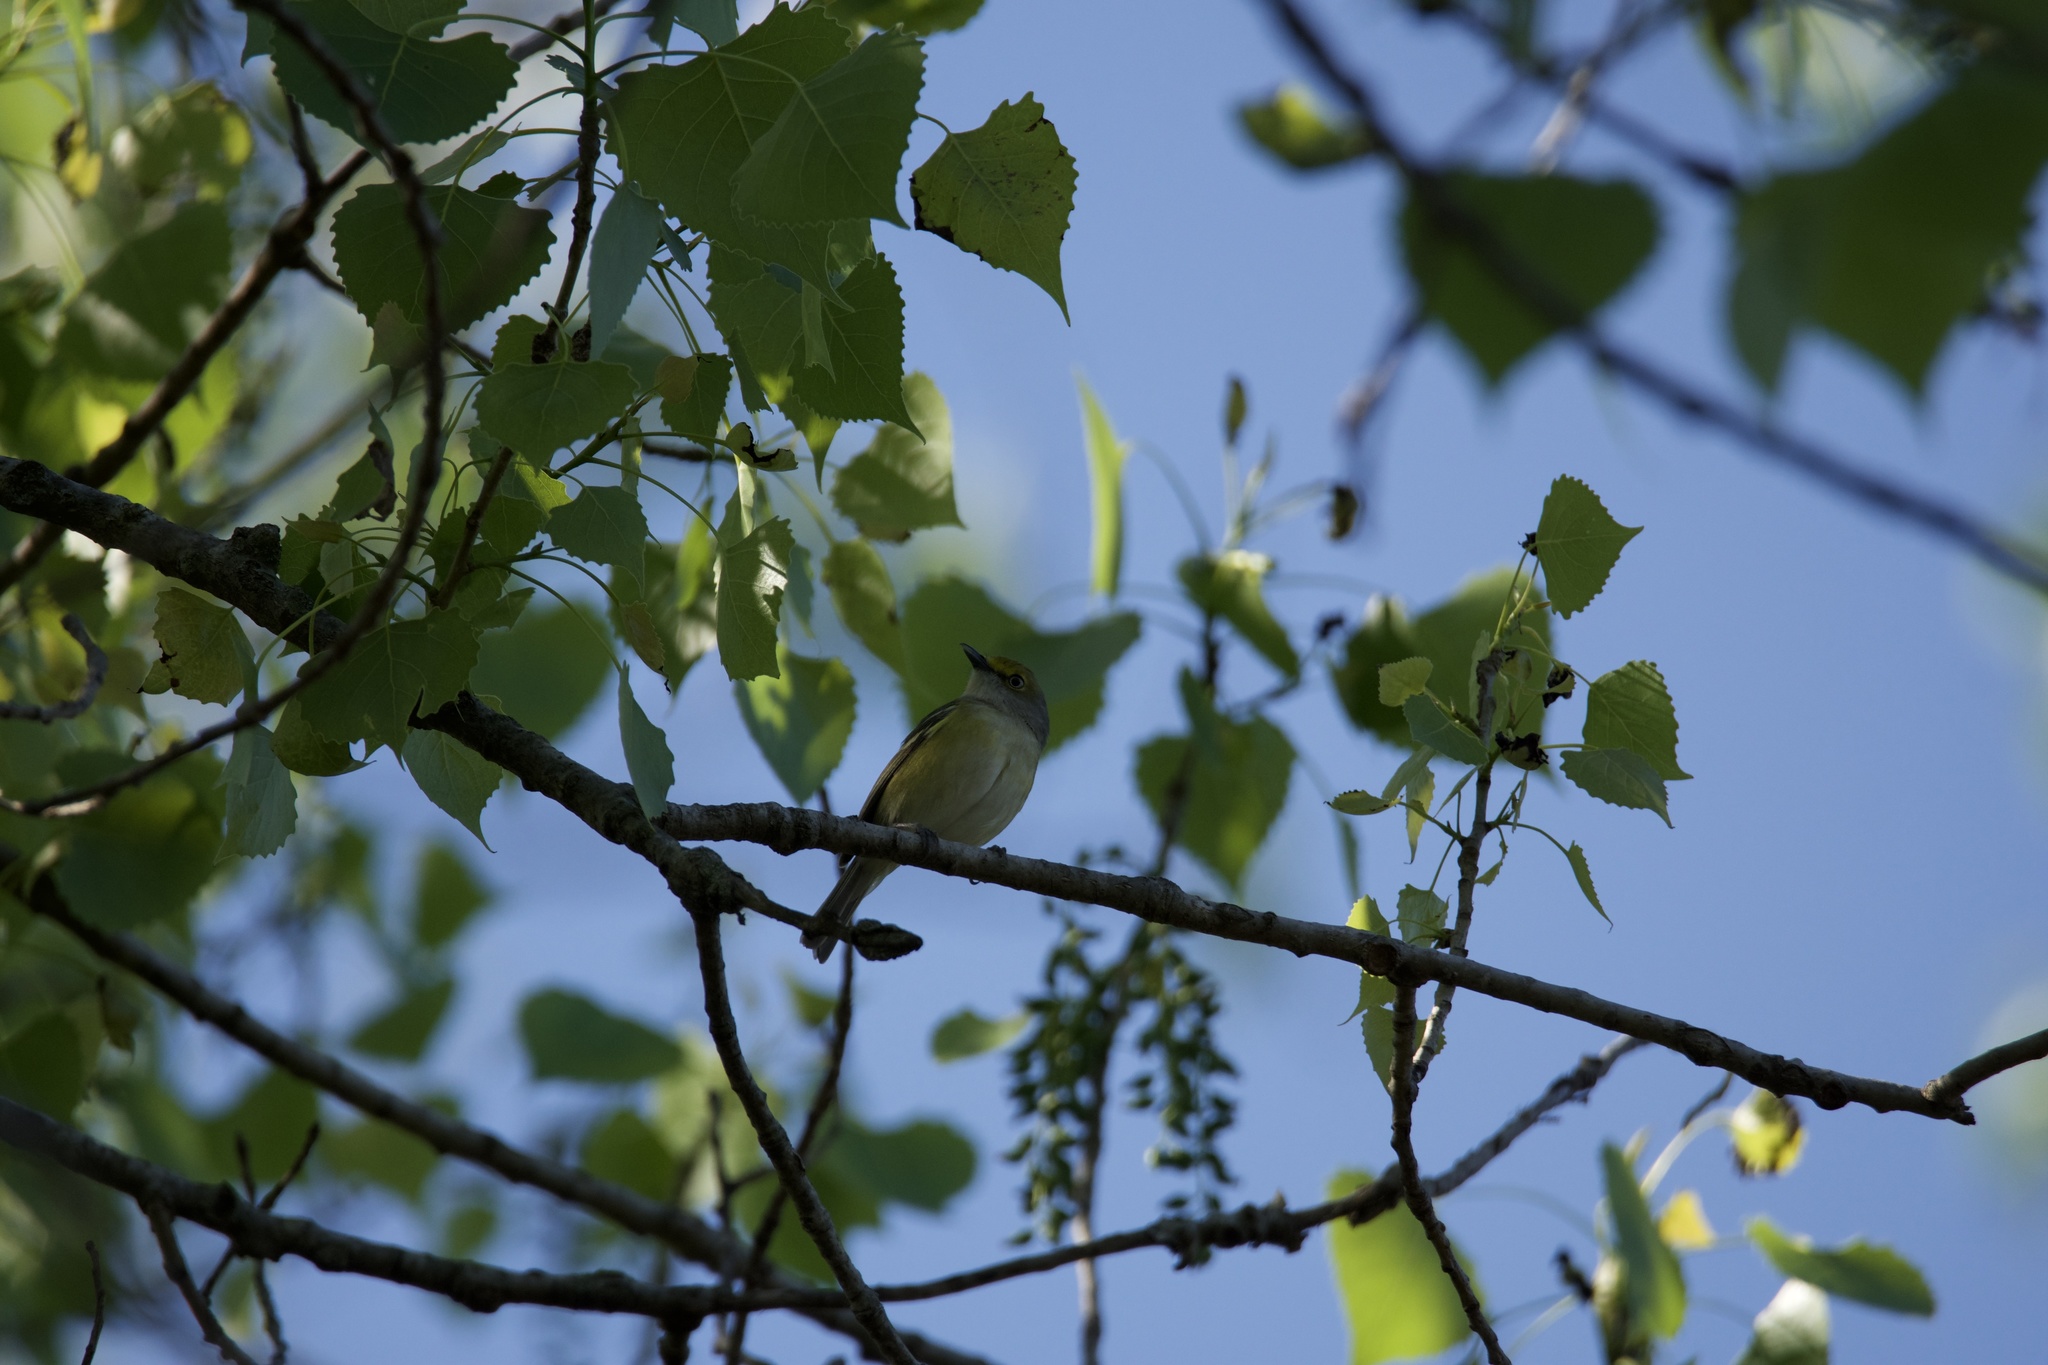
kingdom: Animalia
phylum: Chordata
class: Aves
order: Passeriformes
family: Vireonidae
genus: Vireo
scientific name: Vireo griseus
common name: White-eyed vireo
